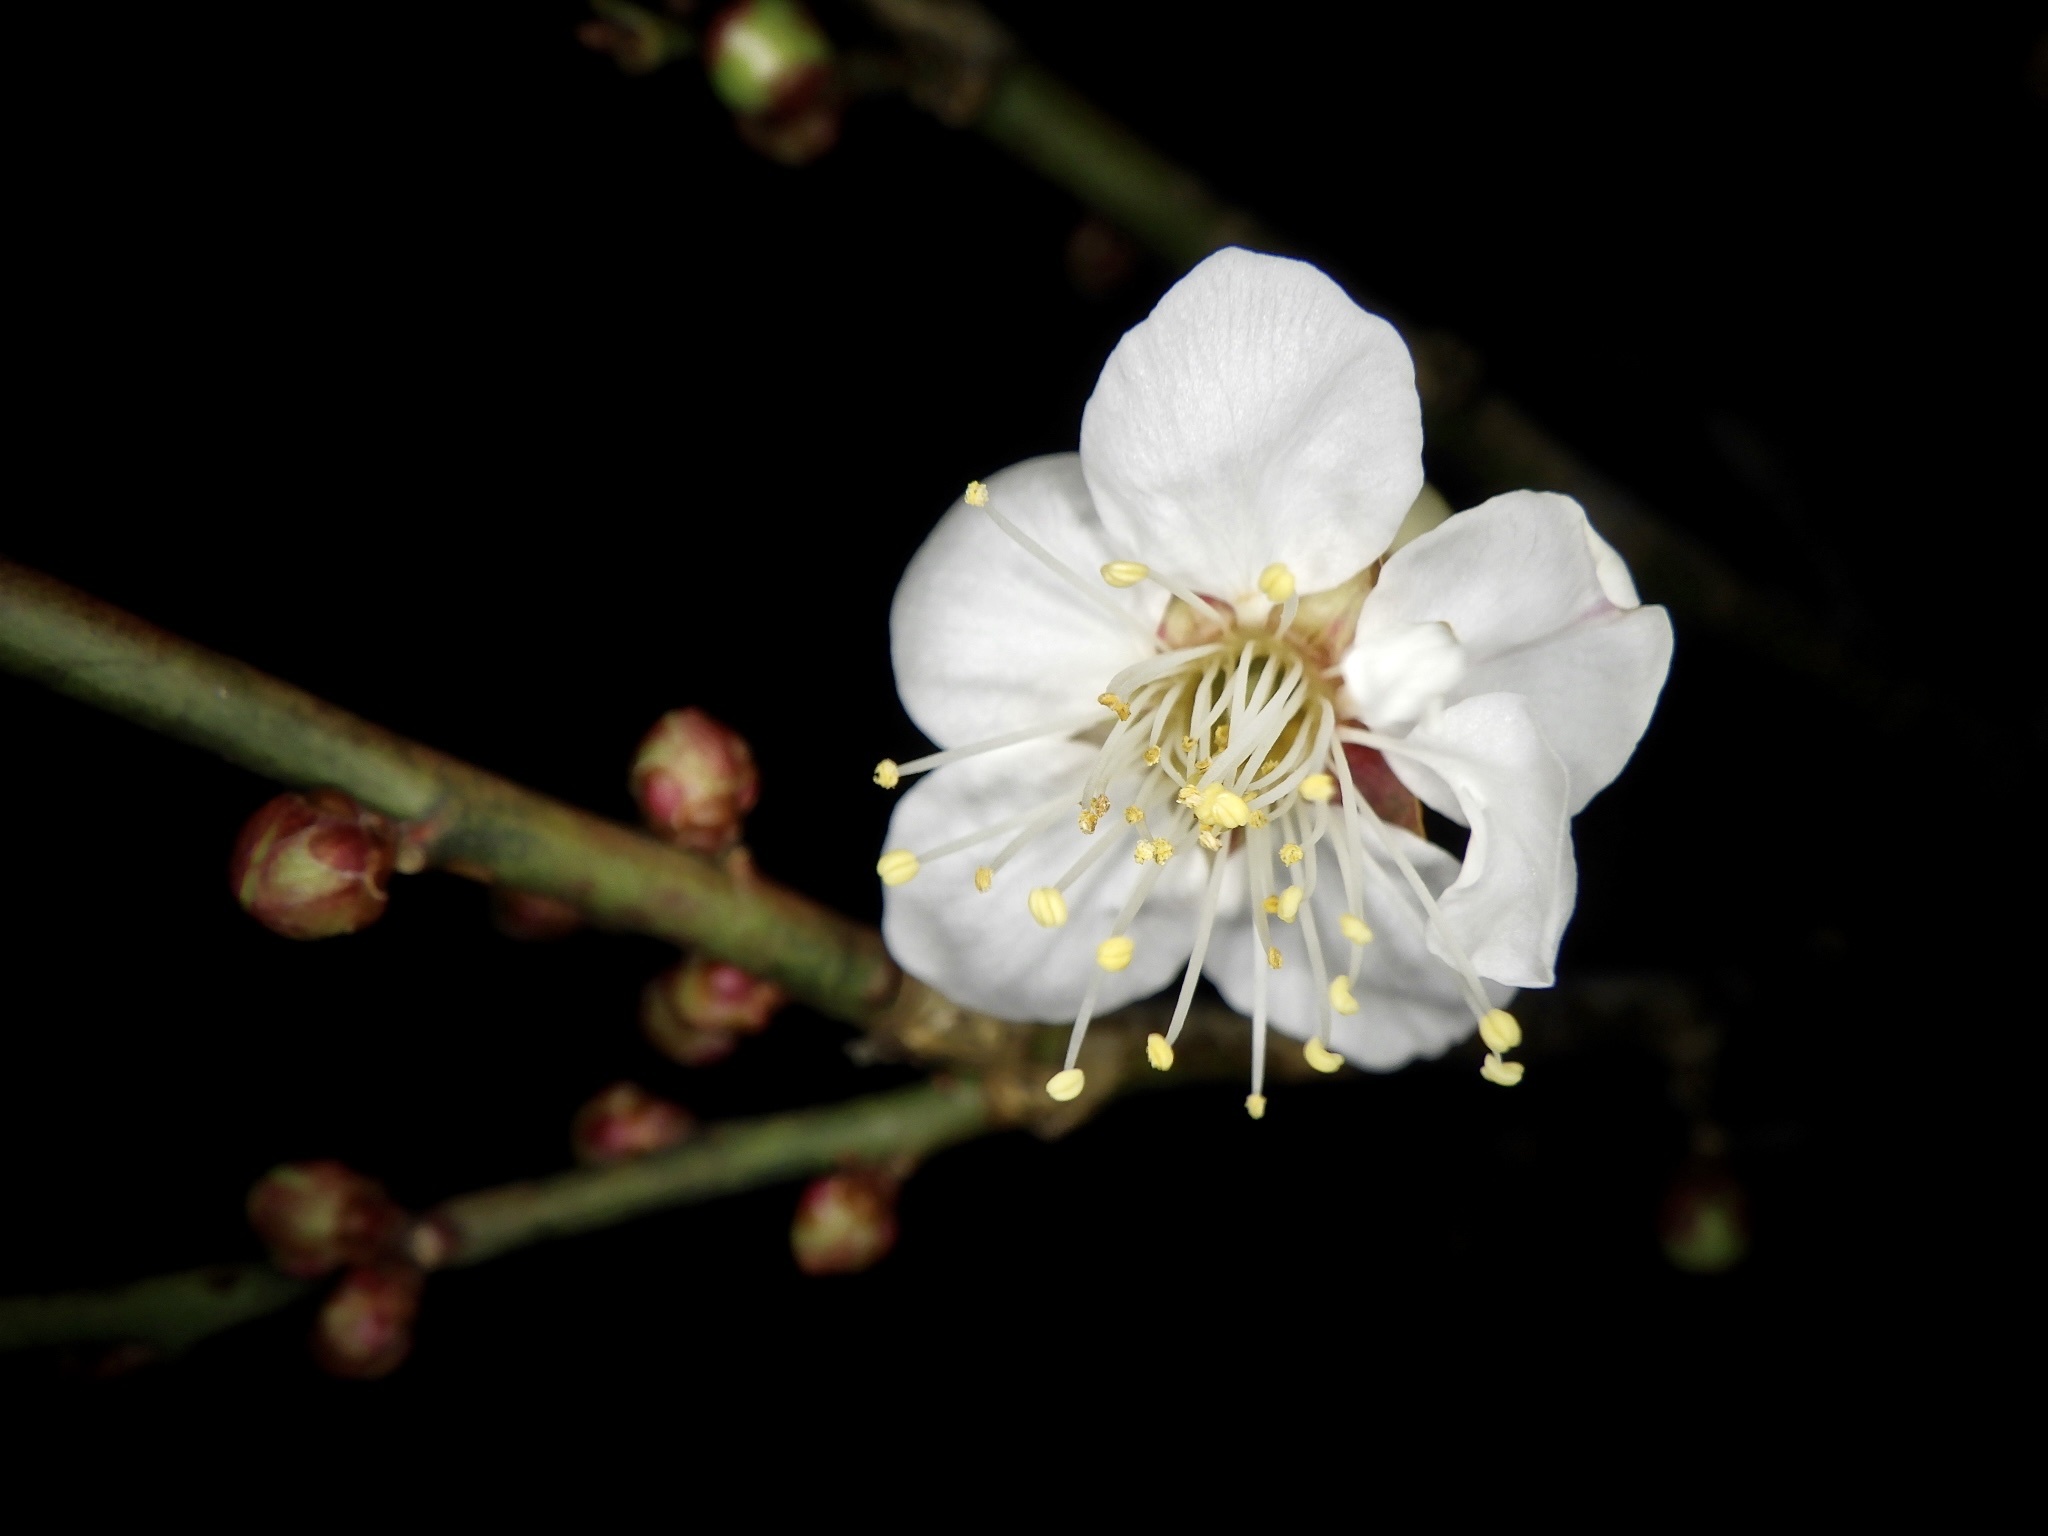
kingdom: Plantae
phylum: Tracheophyta
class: Magnoliopsida
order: Rosales
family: Rosaceae
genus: Prunus
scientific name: Prunus mume
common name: Japanese apricot
